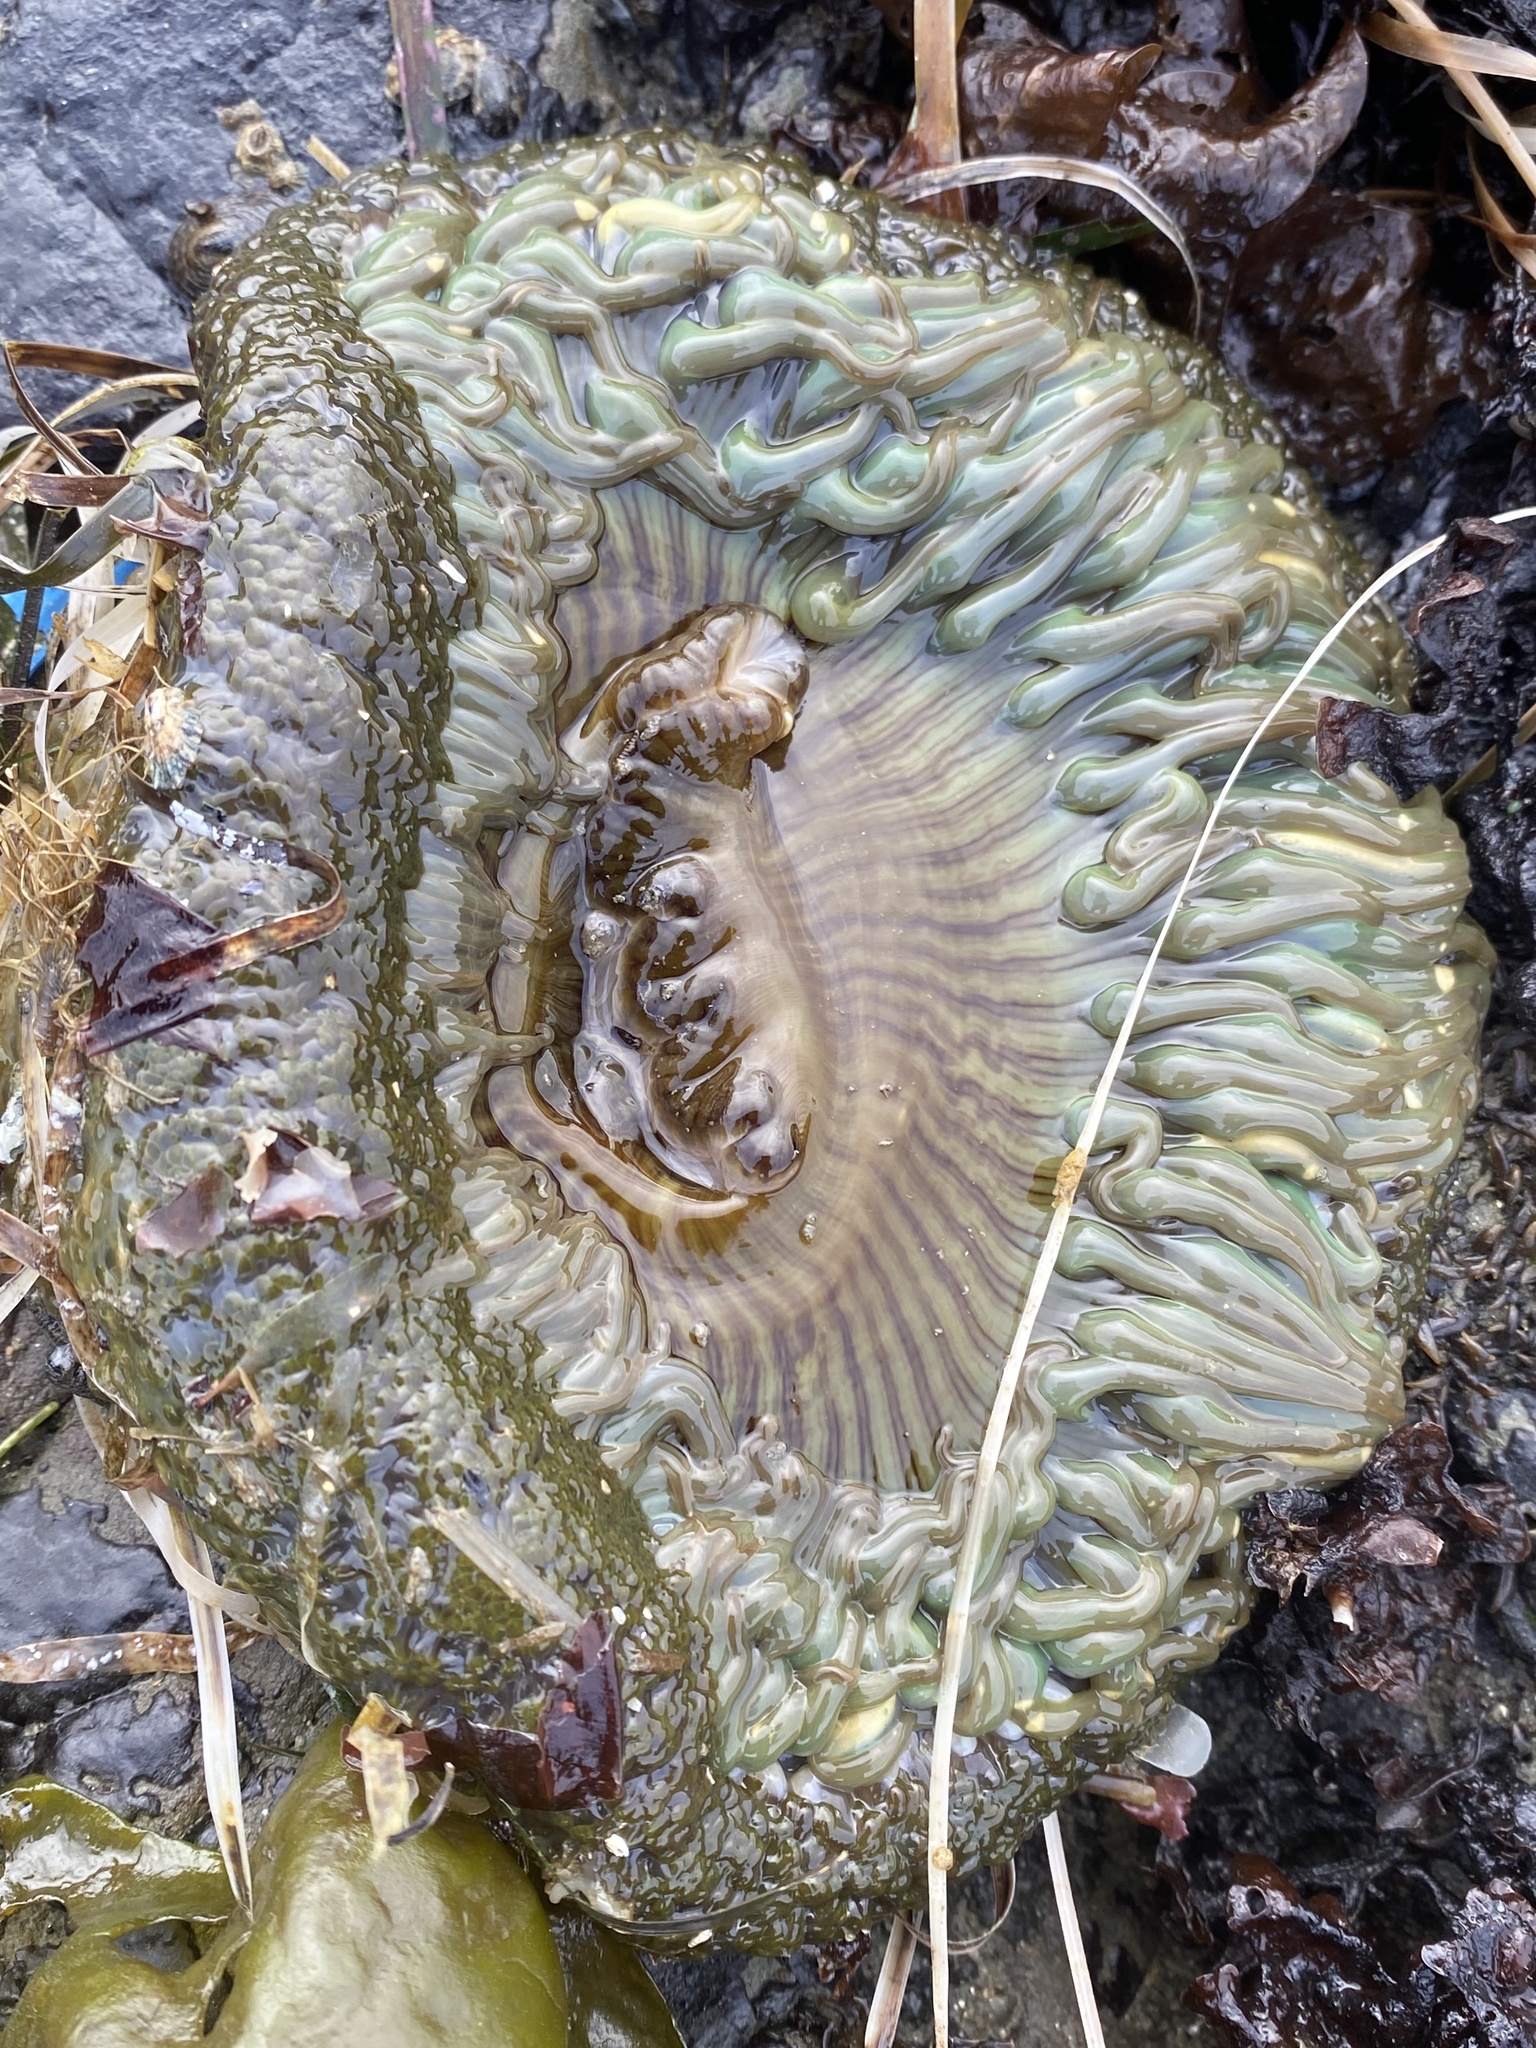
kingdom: Animalia
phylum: Cnidaria
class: Anthozoa
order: Actiniaria
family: Actiniidae
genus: Anthopleura
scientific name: Anthopleura sola
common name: Sun anemone
